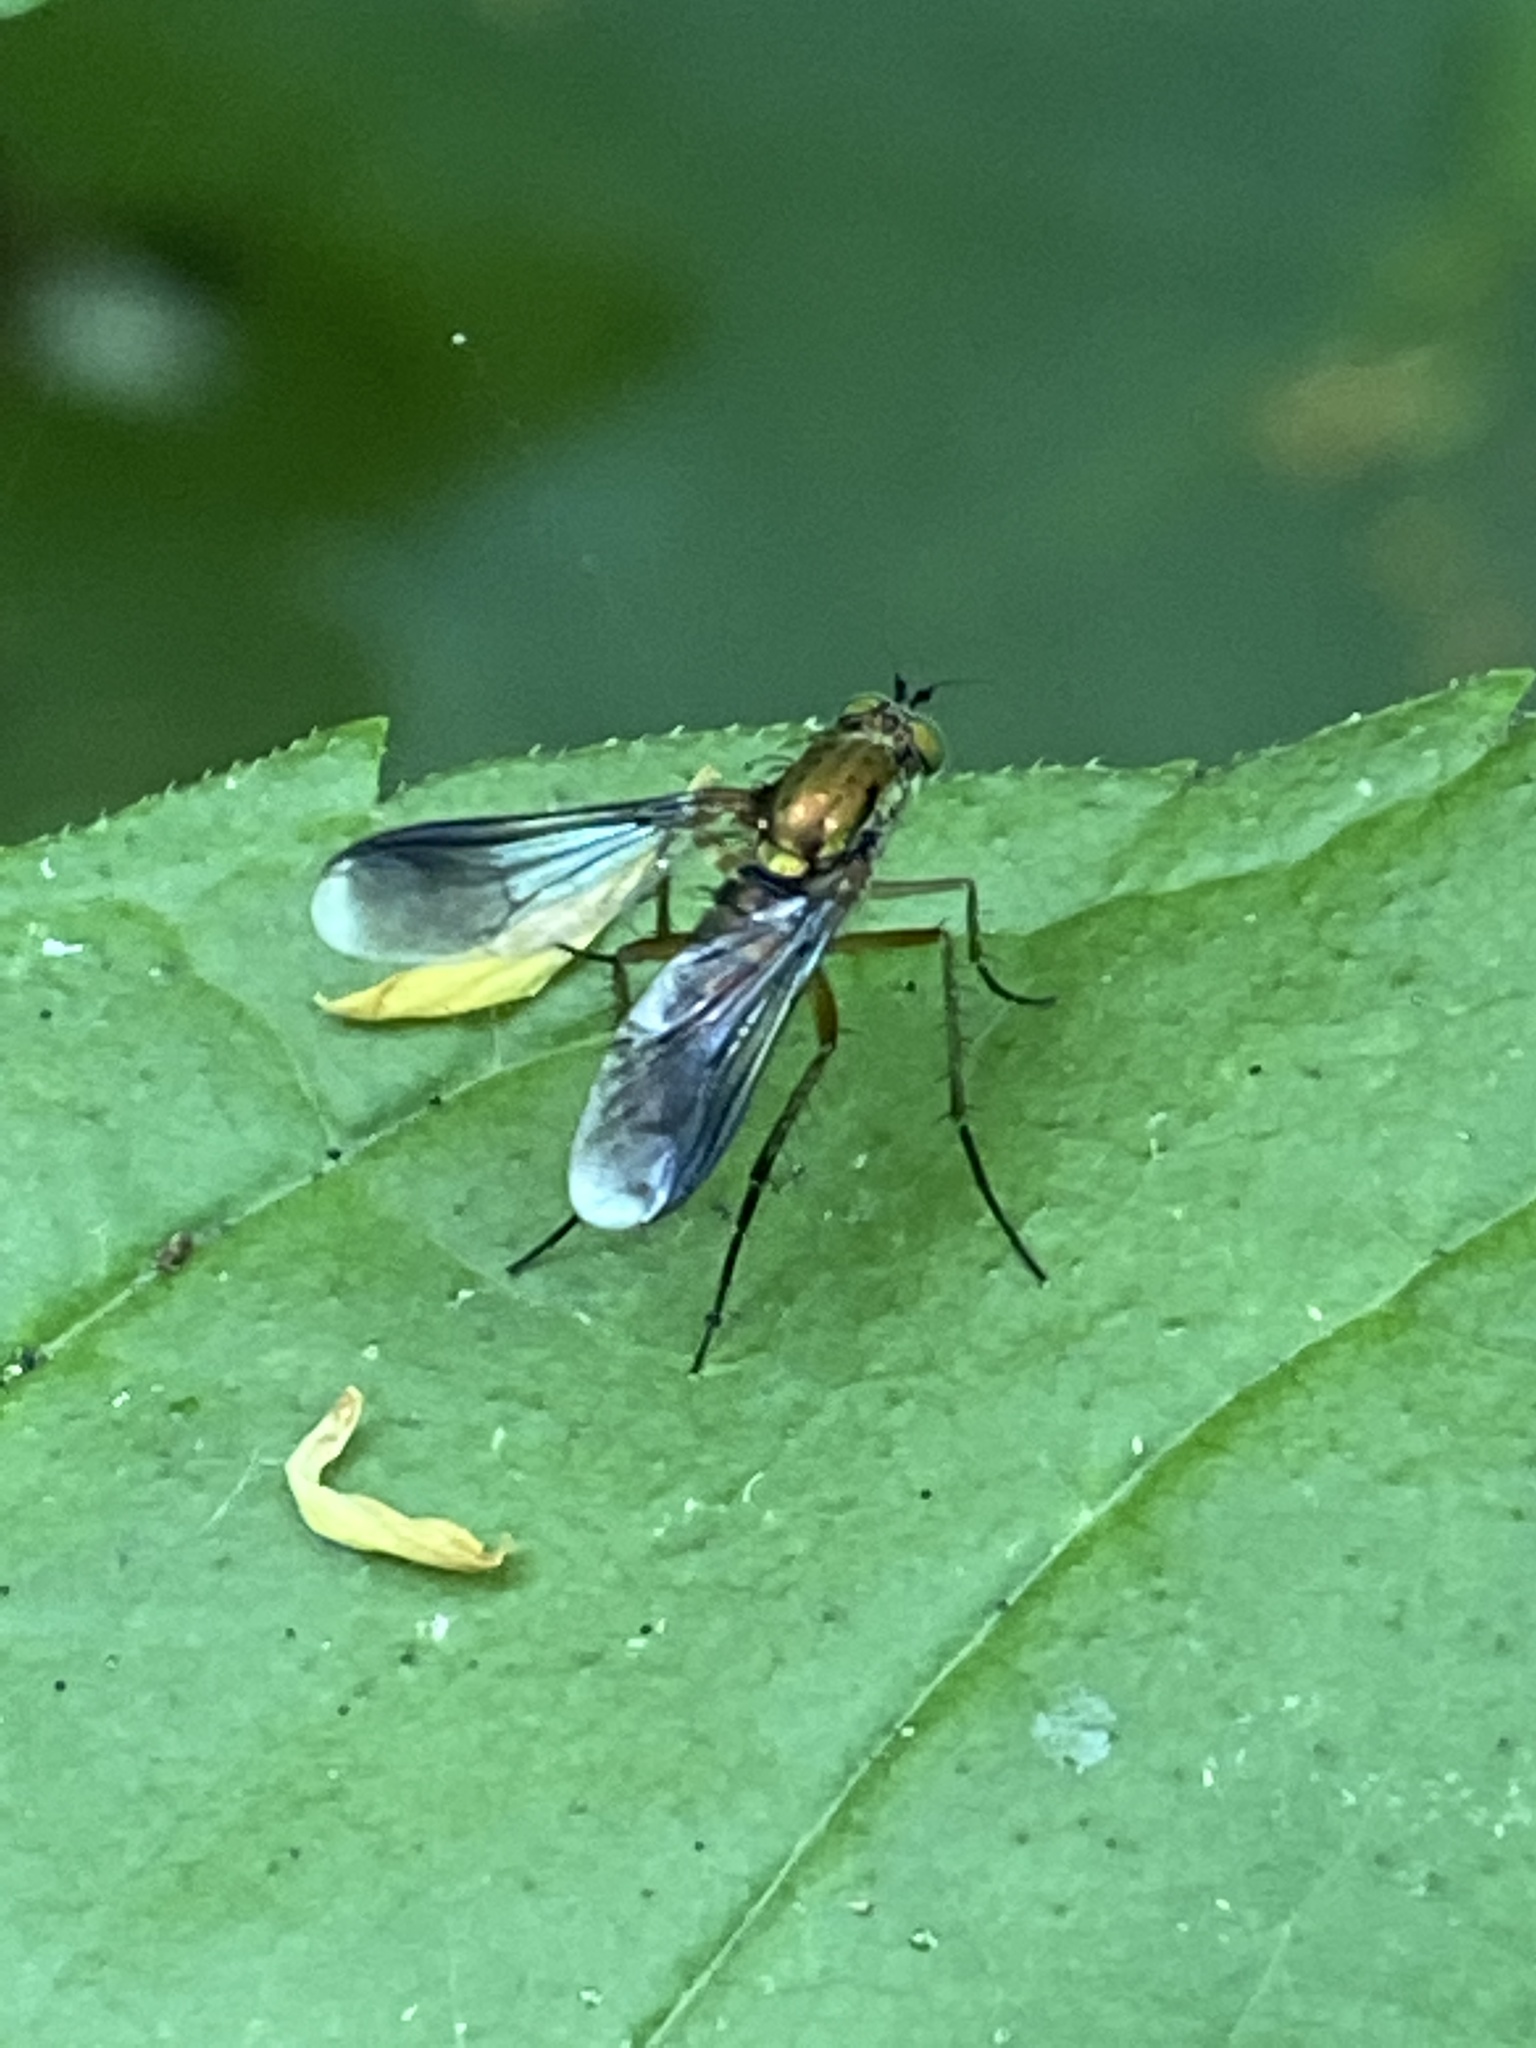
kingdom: Animalia
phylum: Arthropoda
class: Insecta
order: Diptera
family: Dolichopodidae
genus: Poecilobothrus
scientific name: Poecilobothrus nobilitatus
